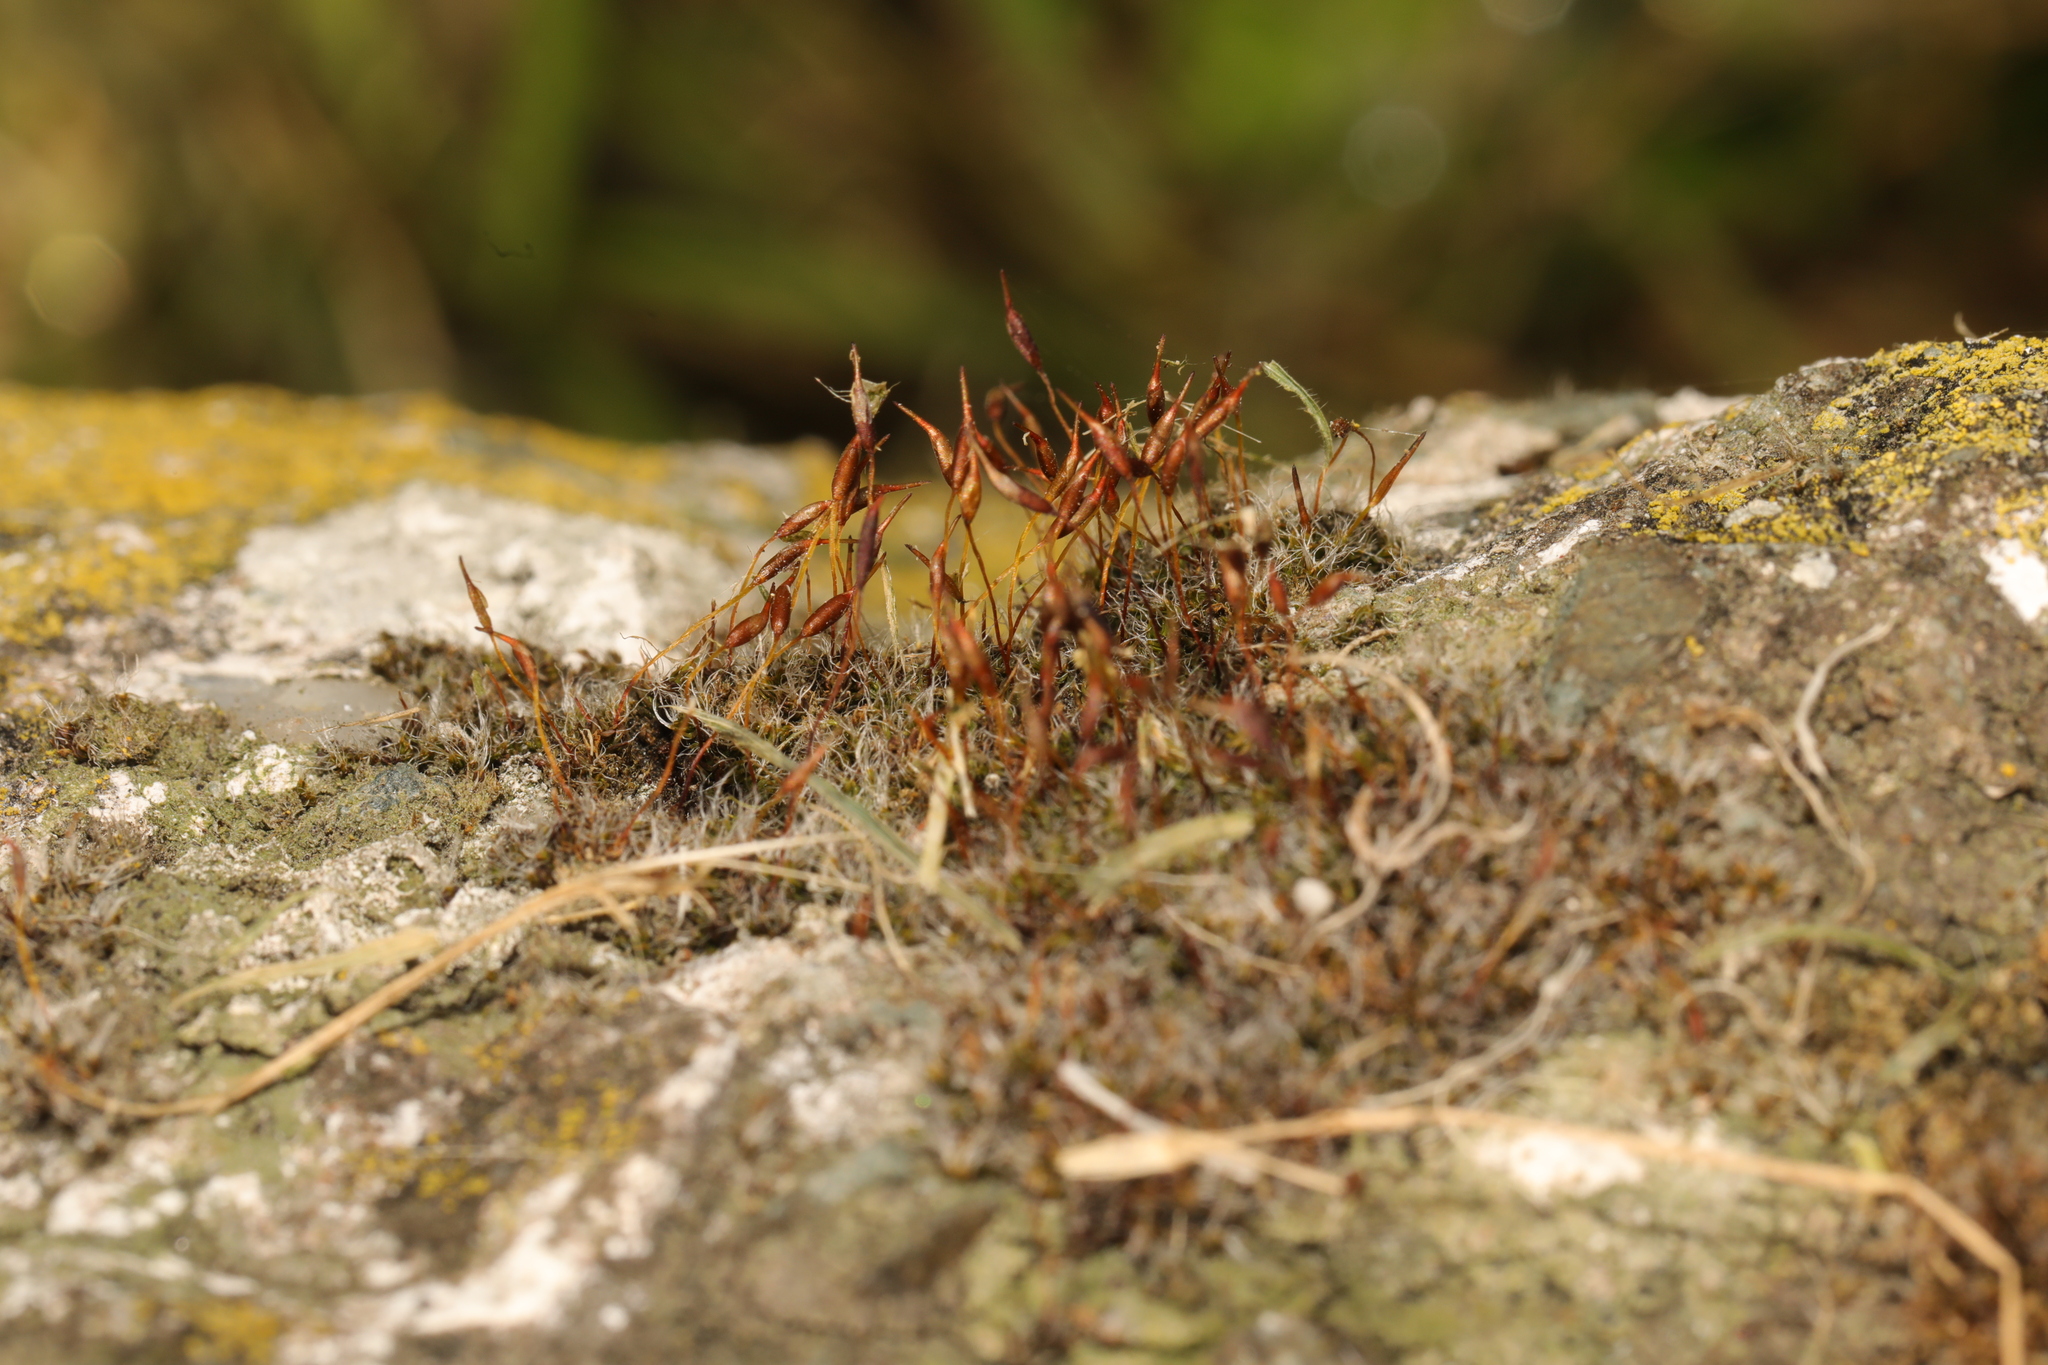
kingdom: Plantae
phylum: Bryophyta
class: Bryopsida
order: Pottiales
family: Pottiaceae
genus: Tortula
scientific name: Tortula muralis
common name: Wall screw-moss
